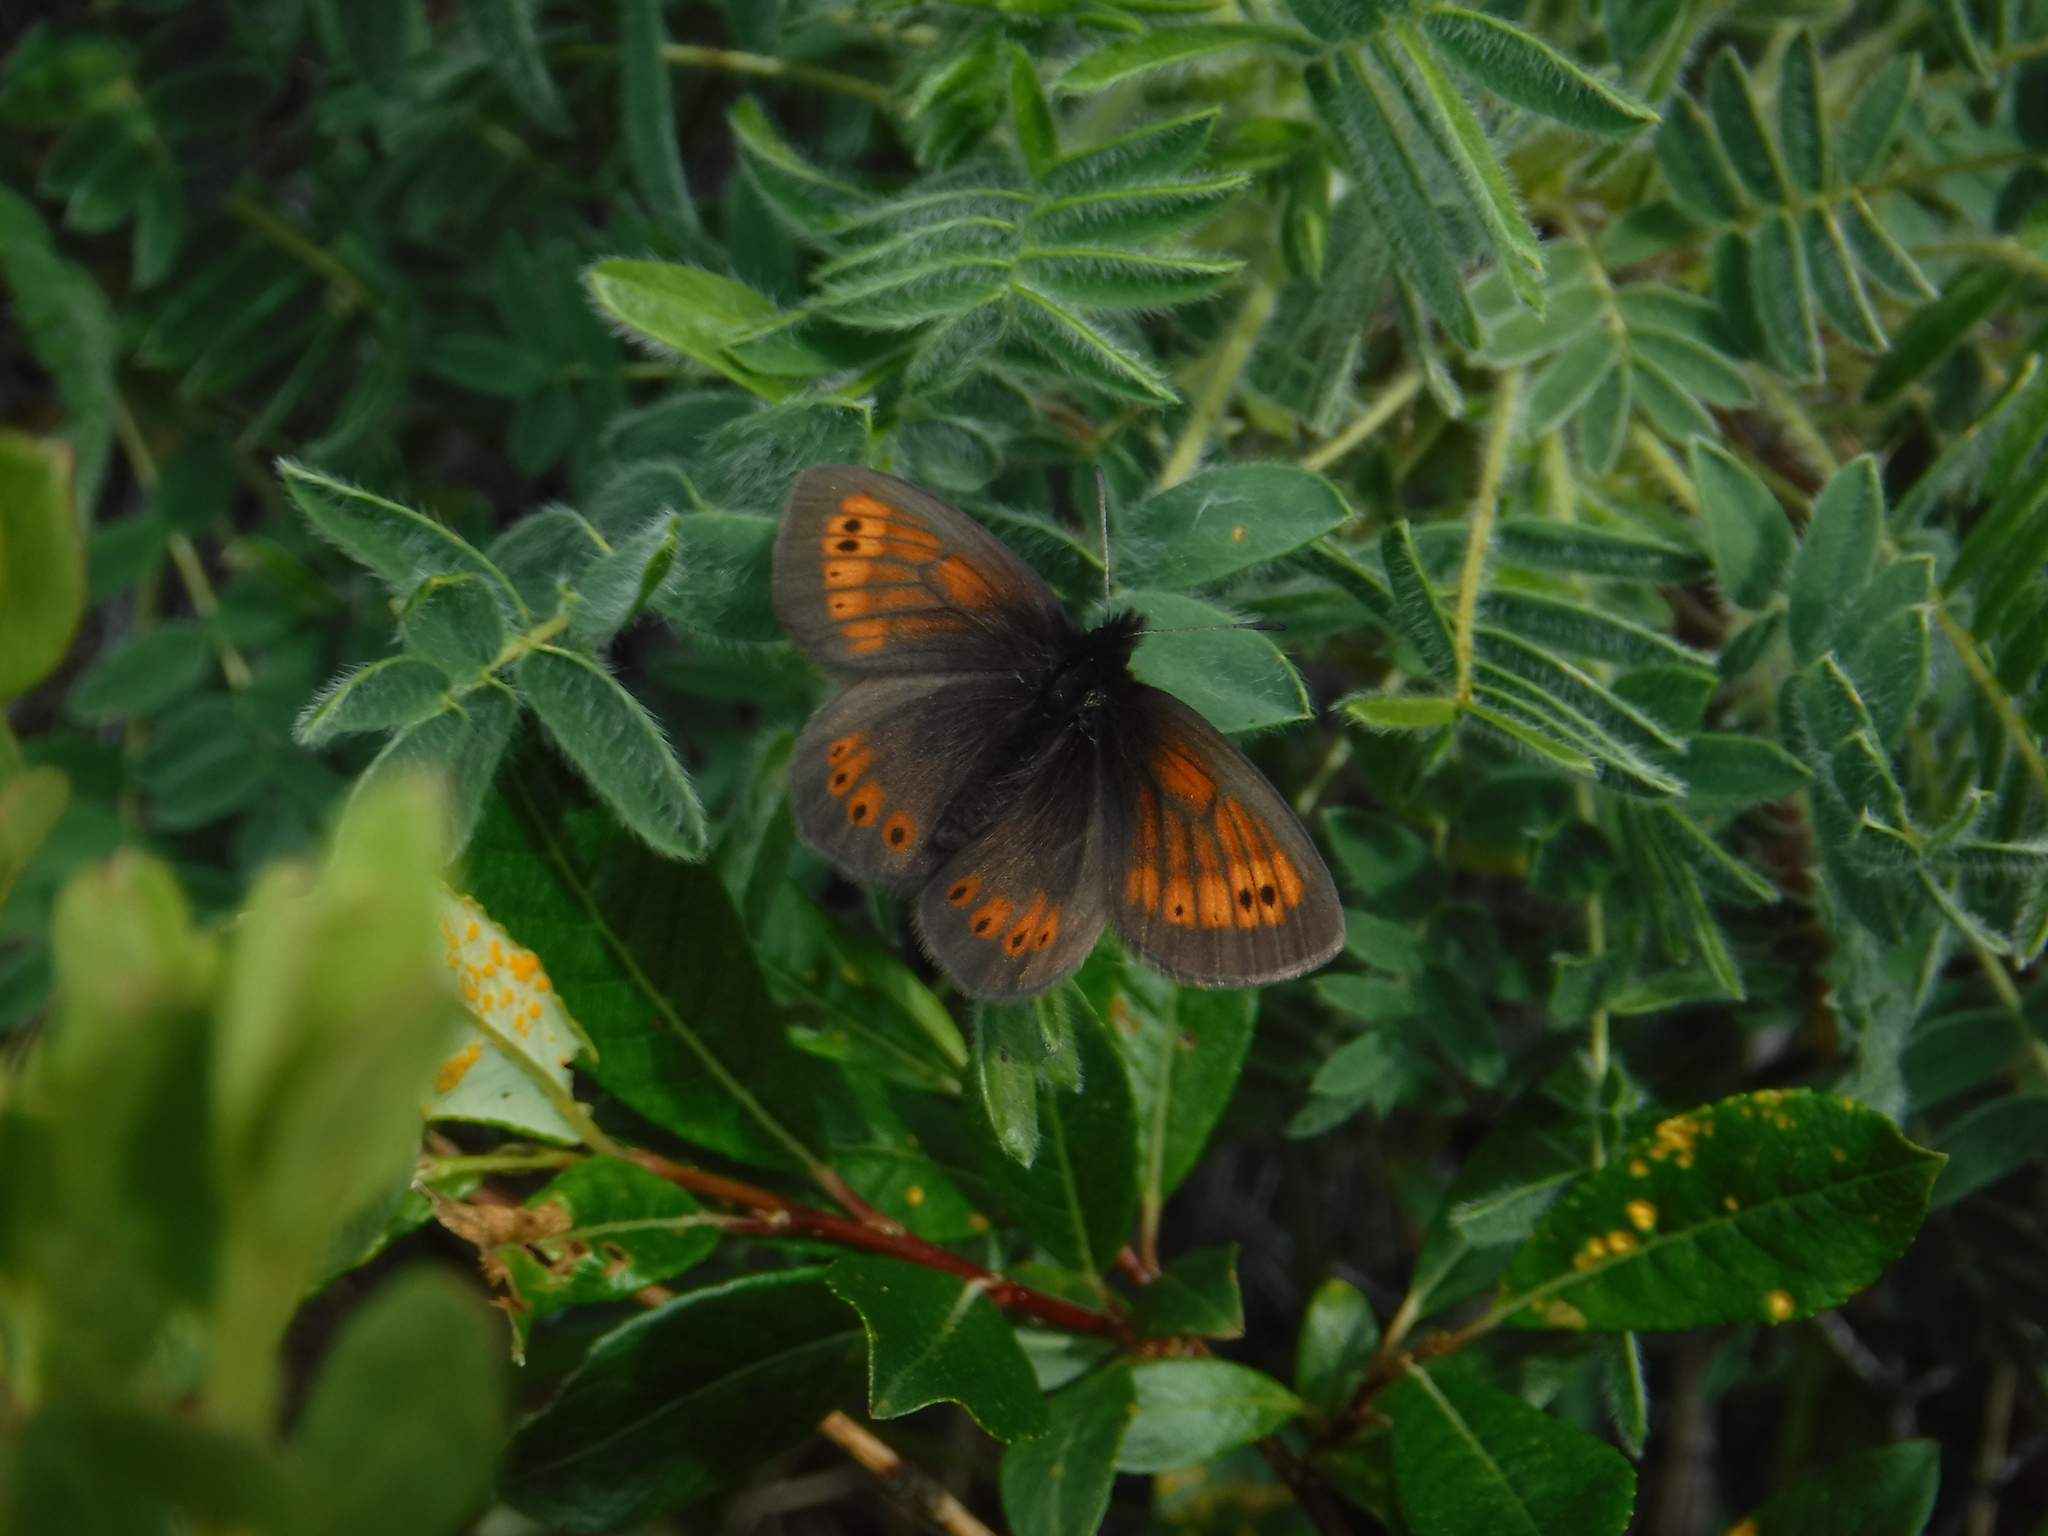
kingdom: Animalia
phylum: Arthropoda
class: Insecta
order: Lepidoptera
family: Nymphalidae
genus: Erebia
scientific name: Erebia kefersteinii
